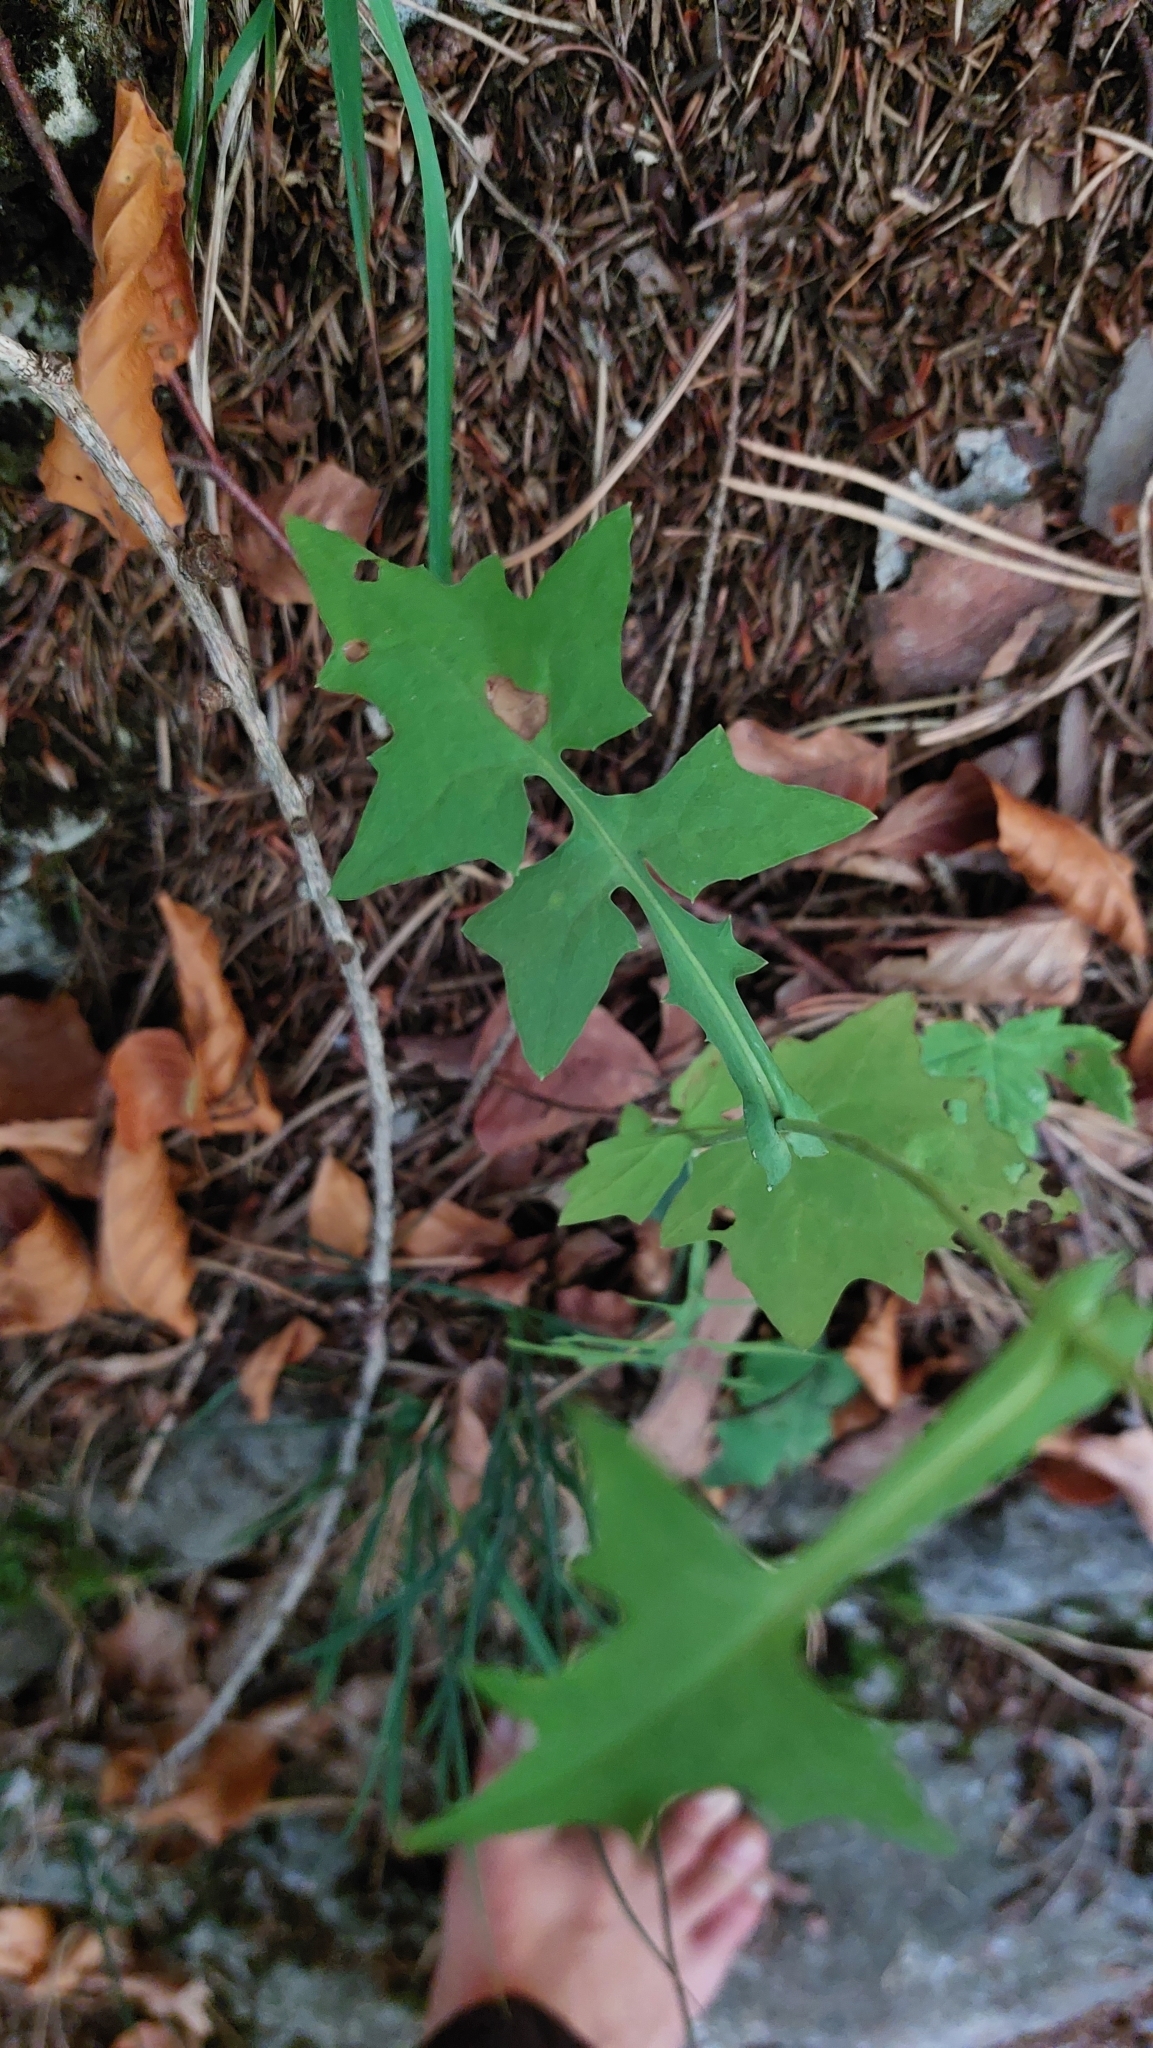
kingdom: Plantae
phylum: Tracheophyta
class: Magnoliopsida
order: Asterales
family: Asteraceae
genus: Mycelis
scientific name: Mycelis muralis
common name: Wall lettuce
